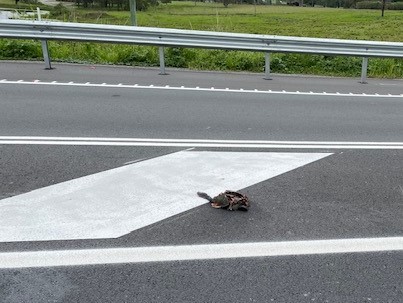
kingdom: Animalia
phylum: Chordata
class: Testudines
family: Chelidae
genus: Chelodina
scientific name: Chelodina expansa
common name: Giant snakeneck turtle
